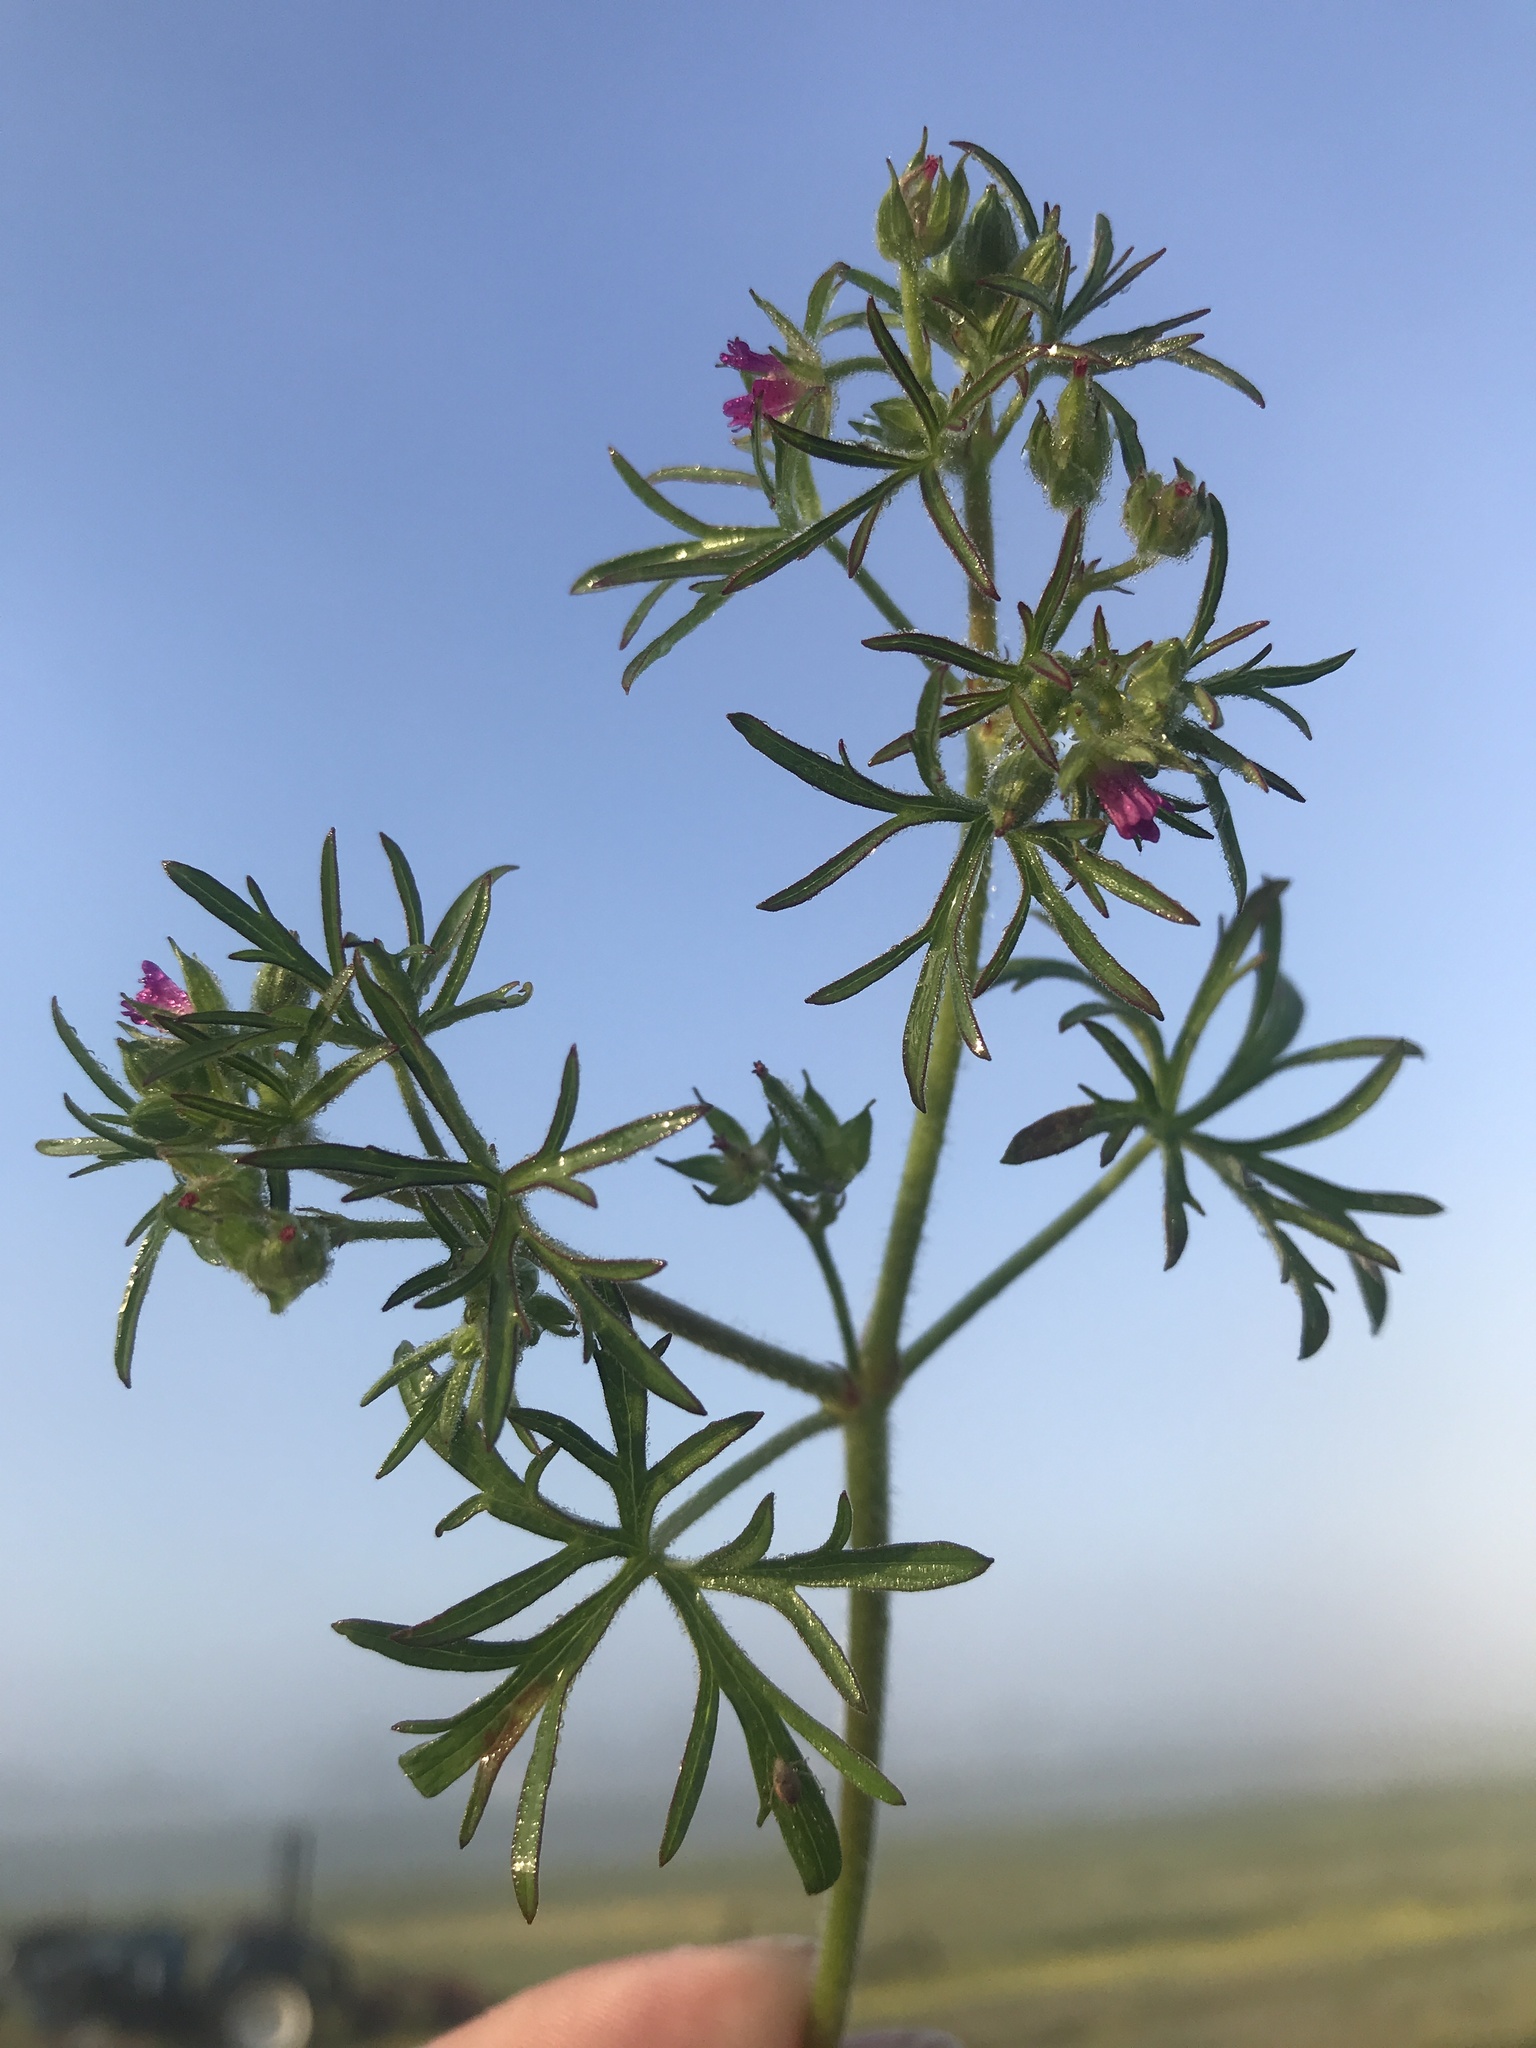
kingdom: Plantae
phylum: Tracheophyta
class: Magnoliopsida
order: Geraniales
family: Geraniaceae
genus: Geranium
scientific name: Geranium dissectum
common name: Cut-leaved crane's-bill
